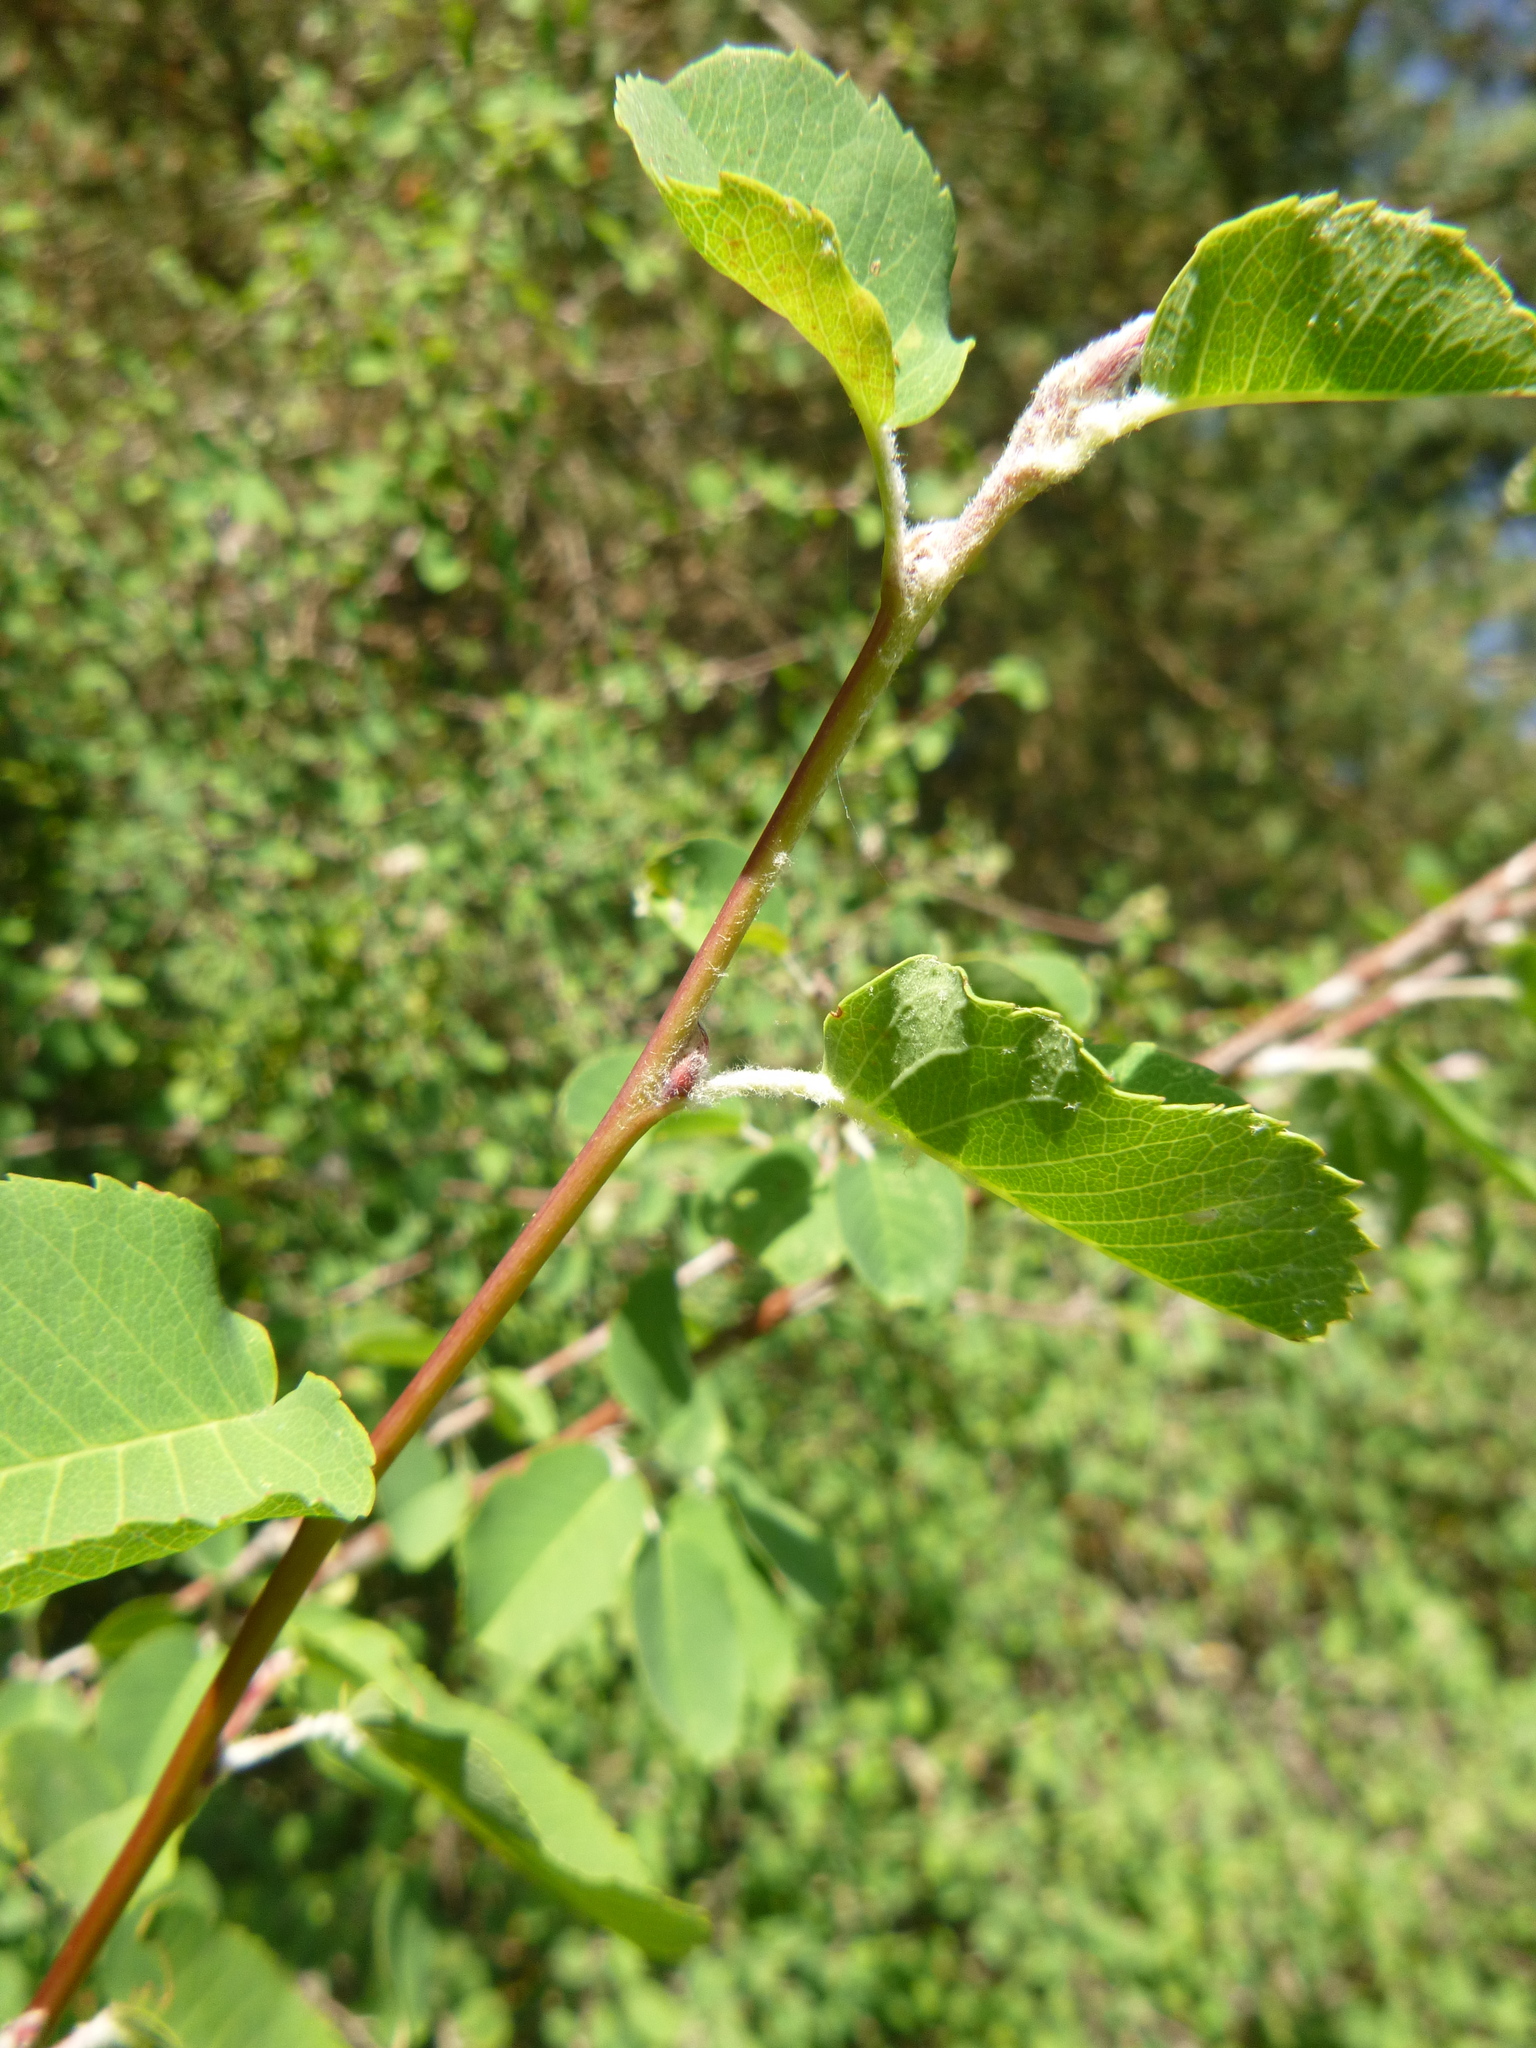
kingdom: Plantae
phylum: Tracheophyta
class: Magnoliopsida
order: Rosales
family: Rosaceae
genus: Amelanchier
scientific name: Amelanchier ovalis
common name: Serviceberry
